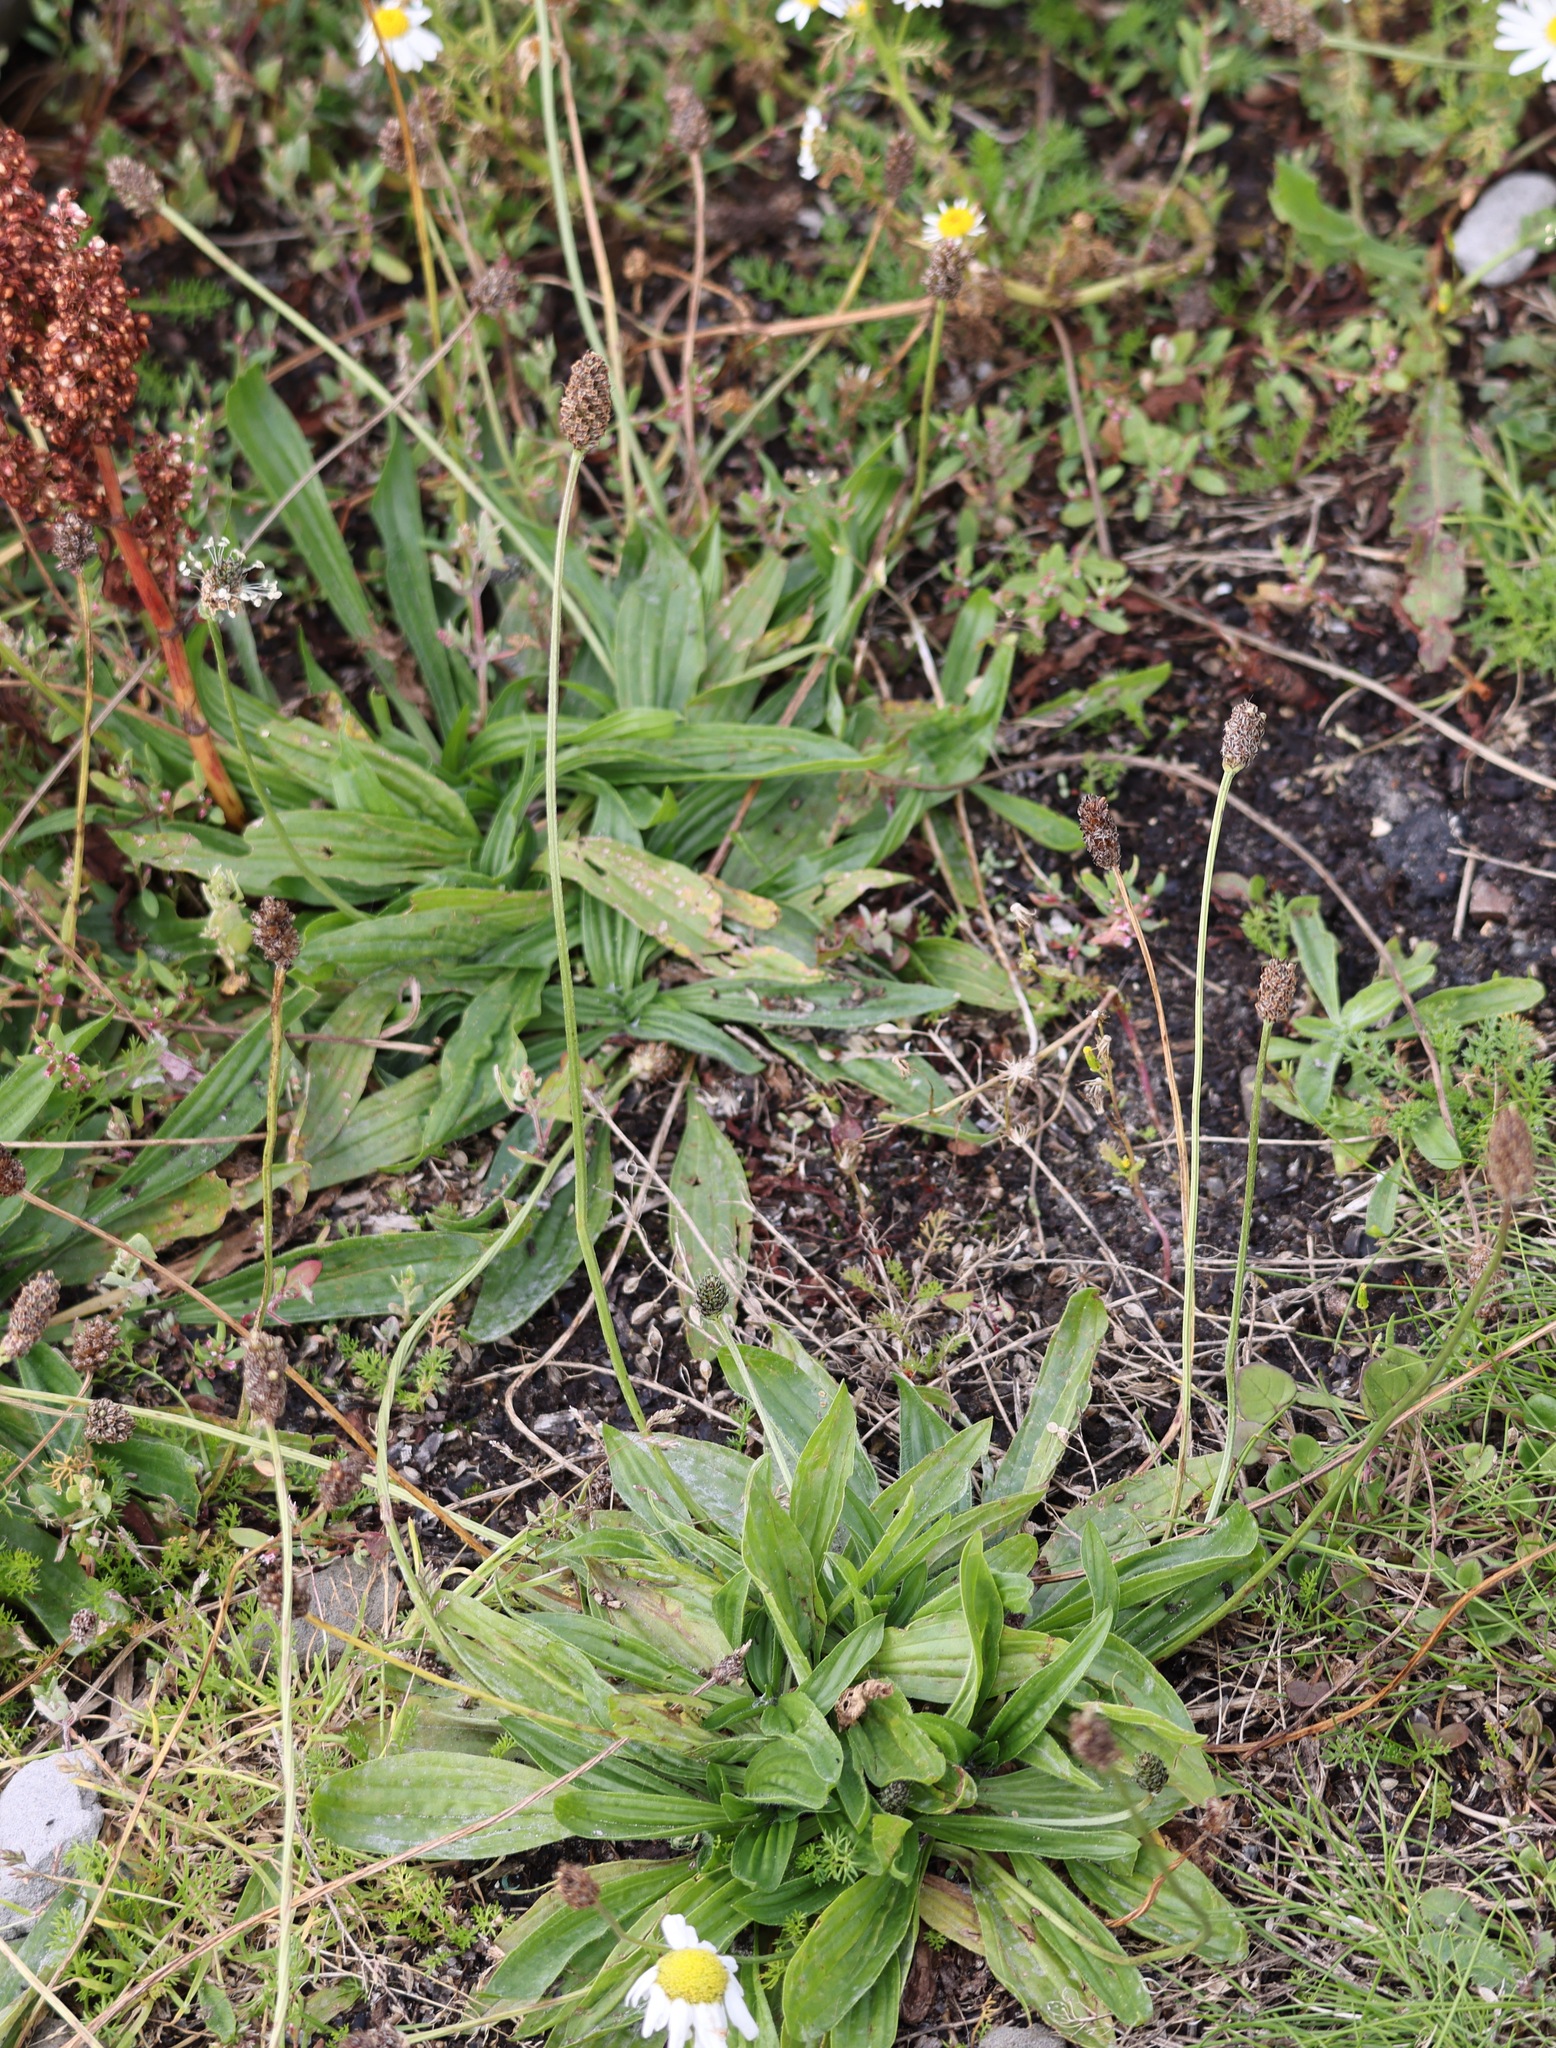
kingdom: Plantae
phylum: Tracheophyta
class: Magnoliopsida
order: Lamiales
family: Plantaginaceae
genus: Plantago
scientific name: Plantago lanceolata
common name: Ribwort plantain
